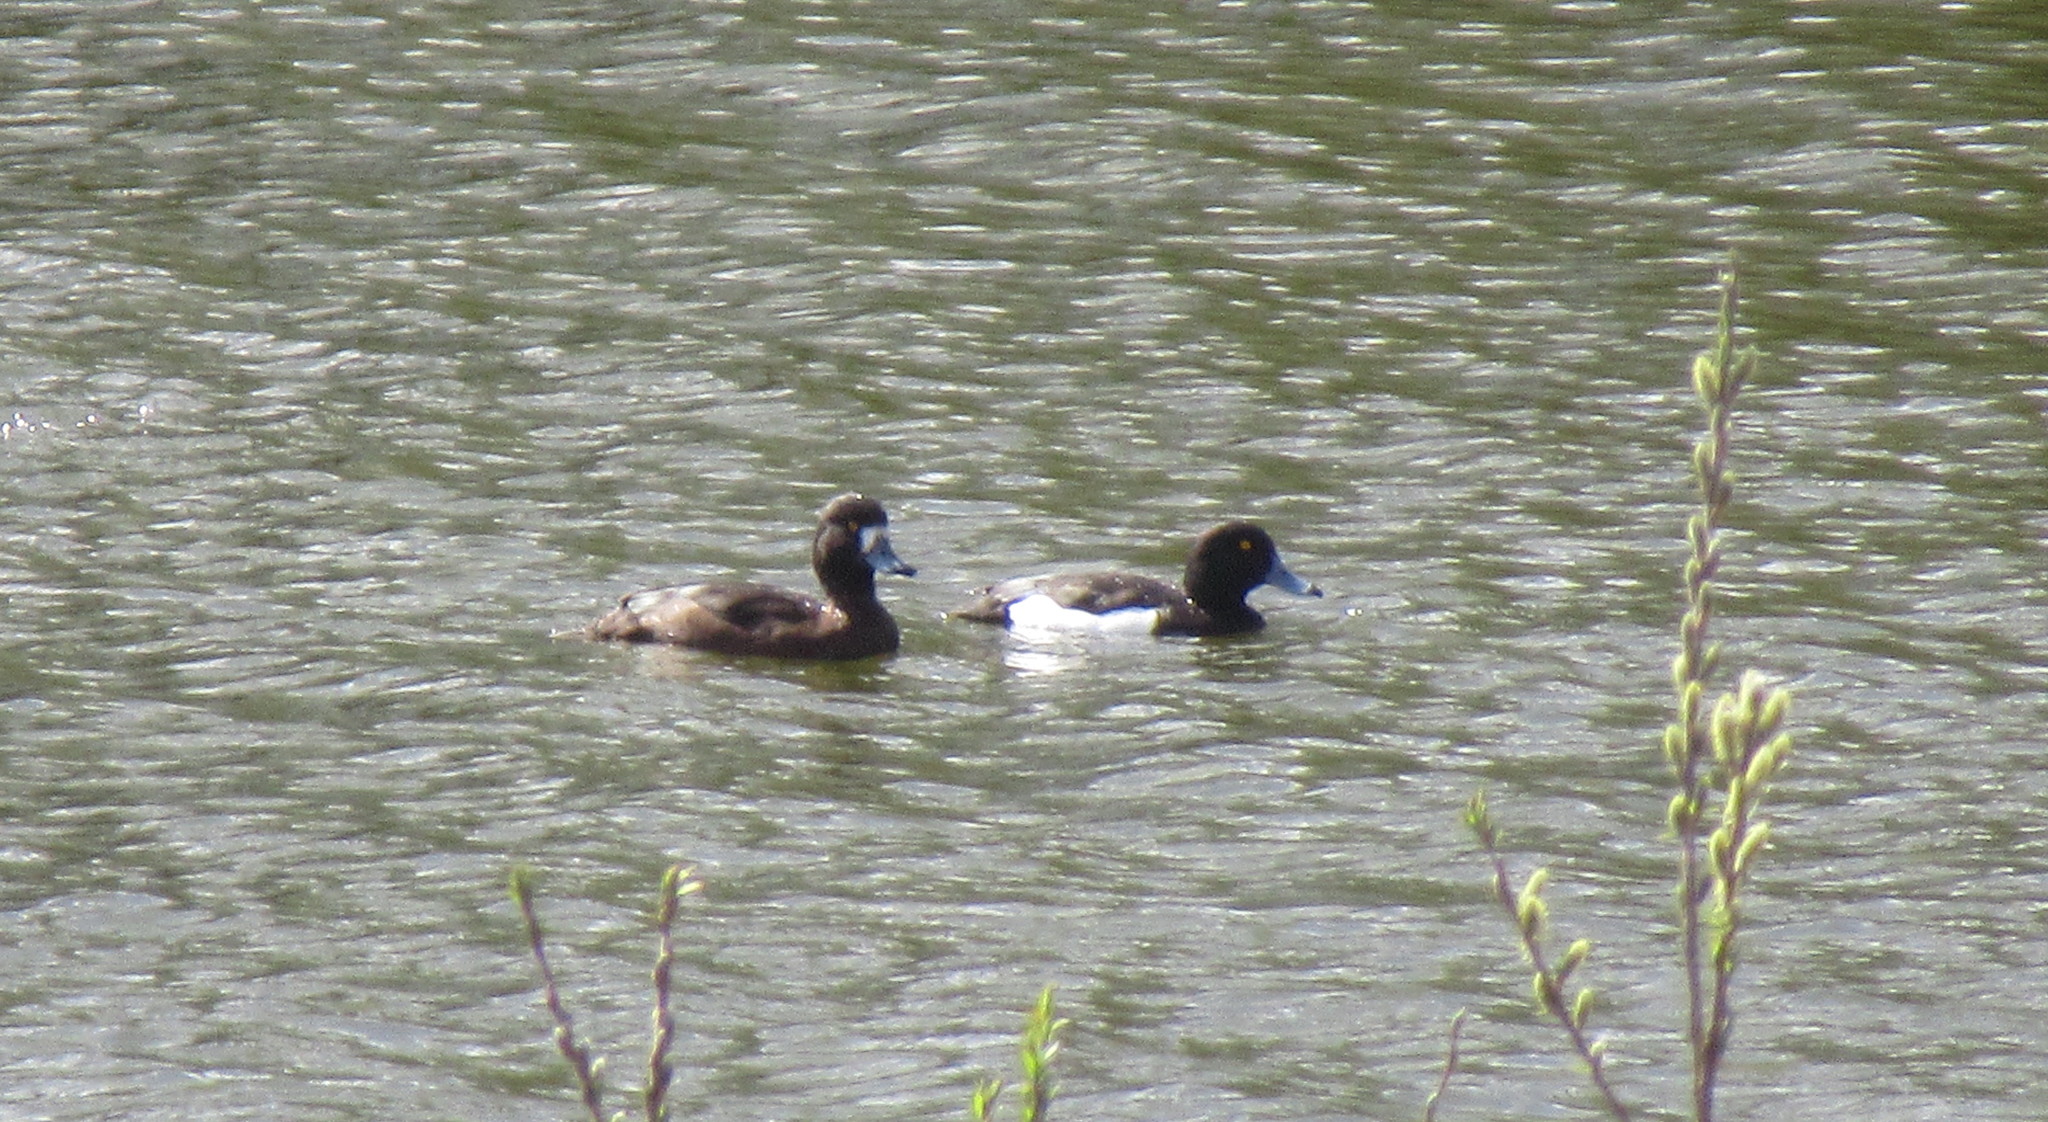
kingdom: Animalia
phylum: Chordata
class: Aves
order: Anseriformes
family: Anatidae
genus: Aythya
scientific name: Aythya fuligula
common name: Tufted duck
